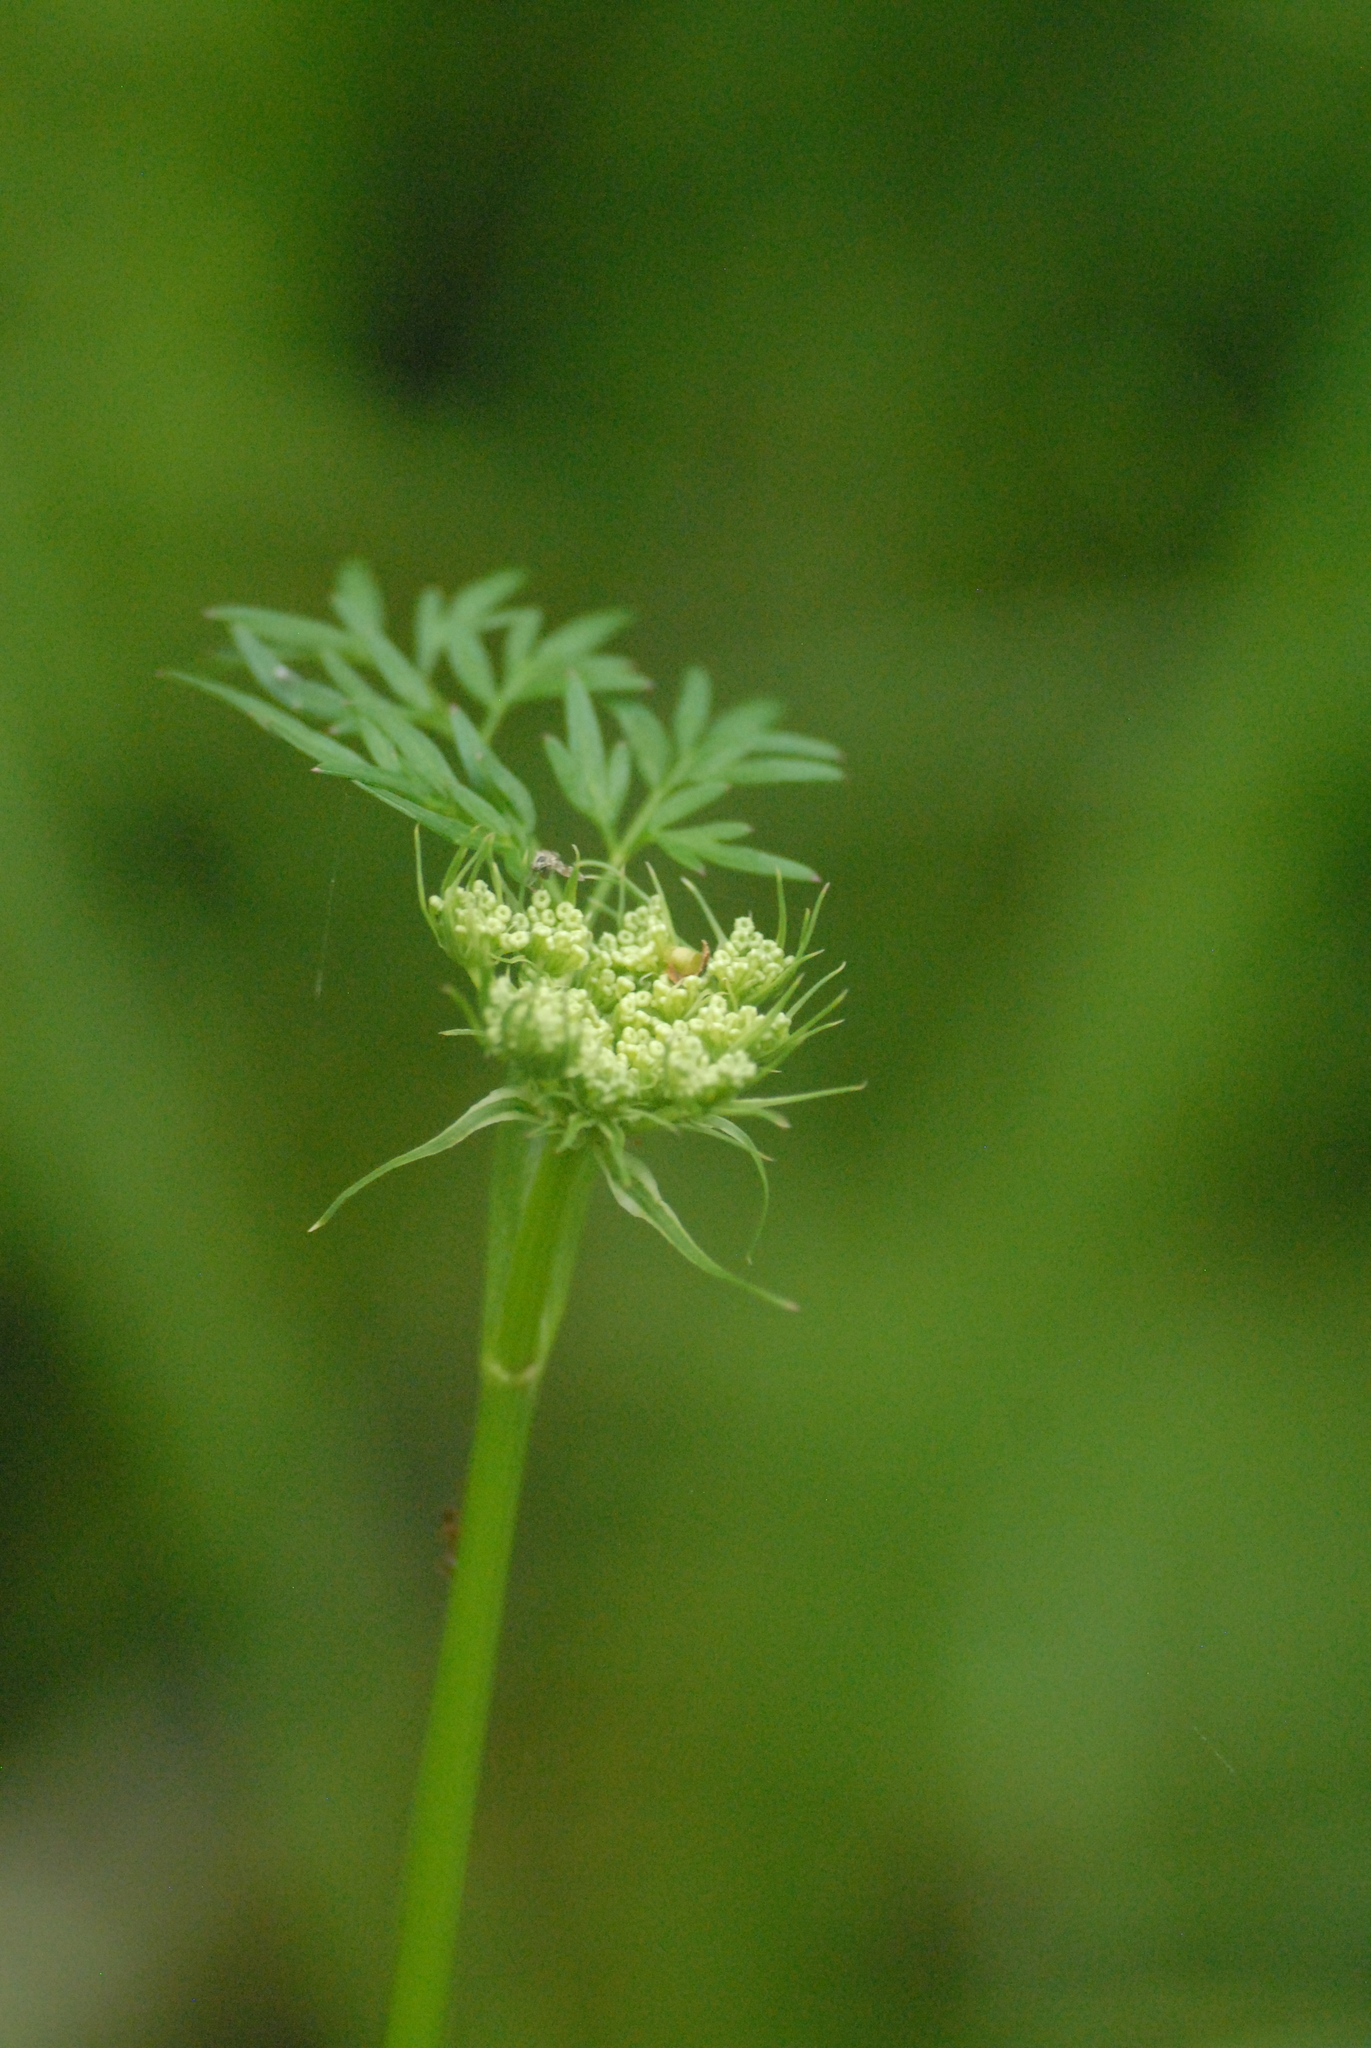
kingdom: Plantae
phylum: Tracheophyta
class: Magnoliopsida
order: Apiales
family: Apiaceae
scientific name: Apiaceae
